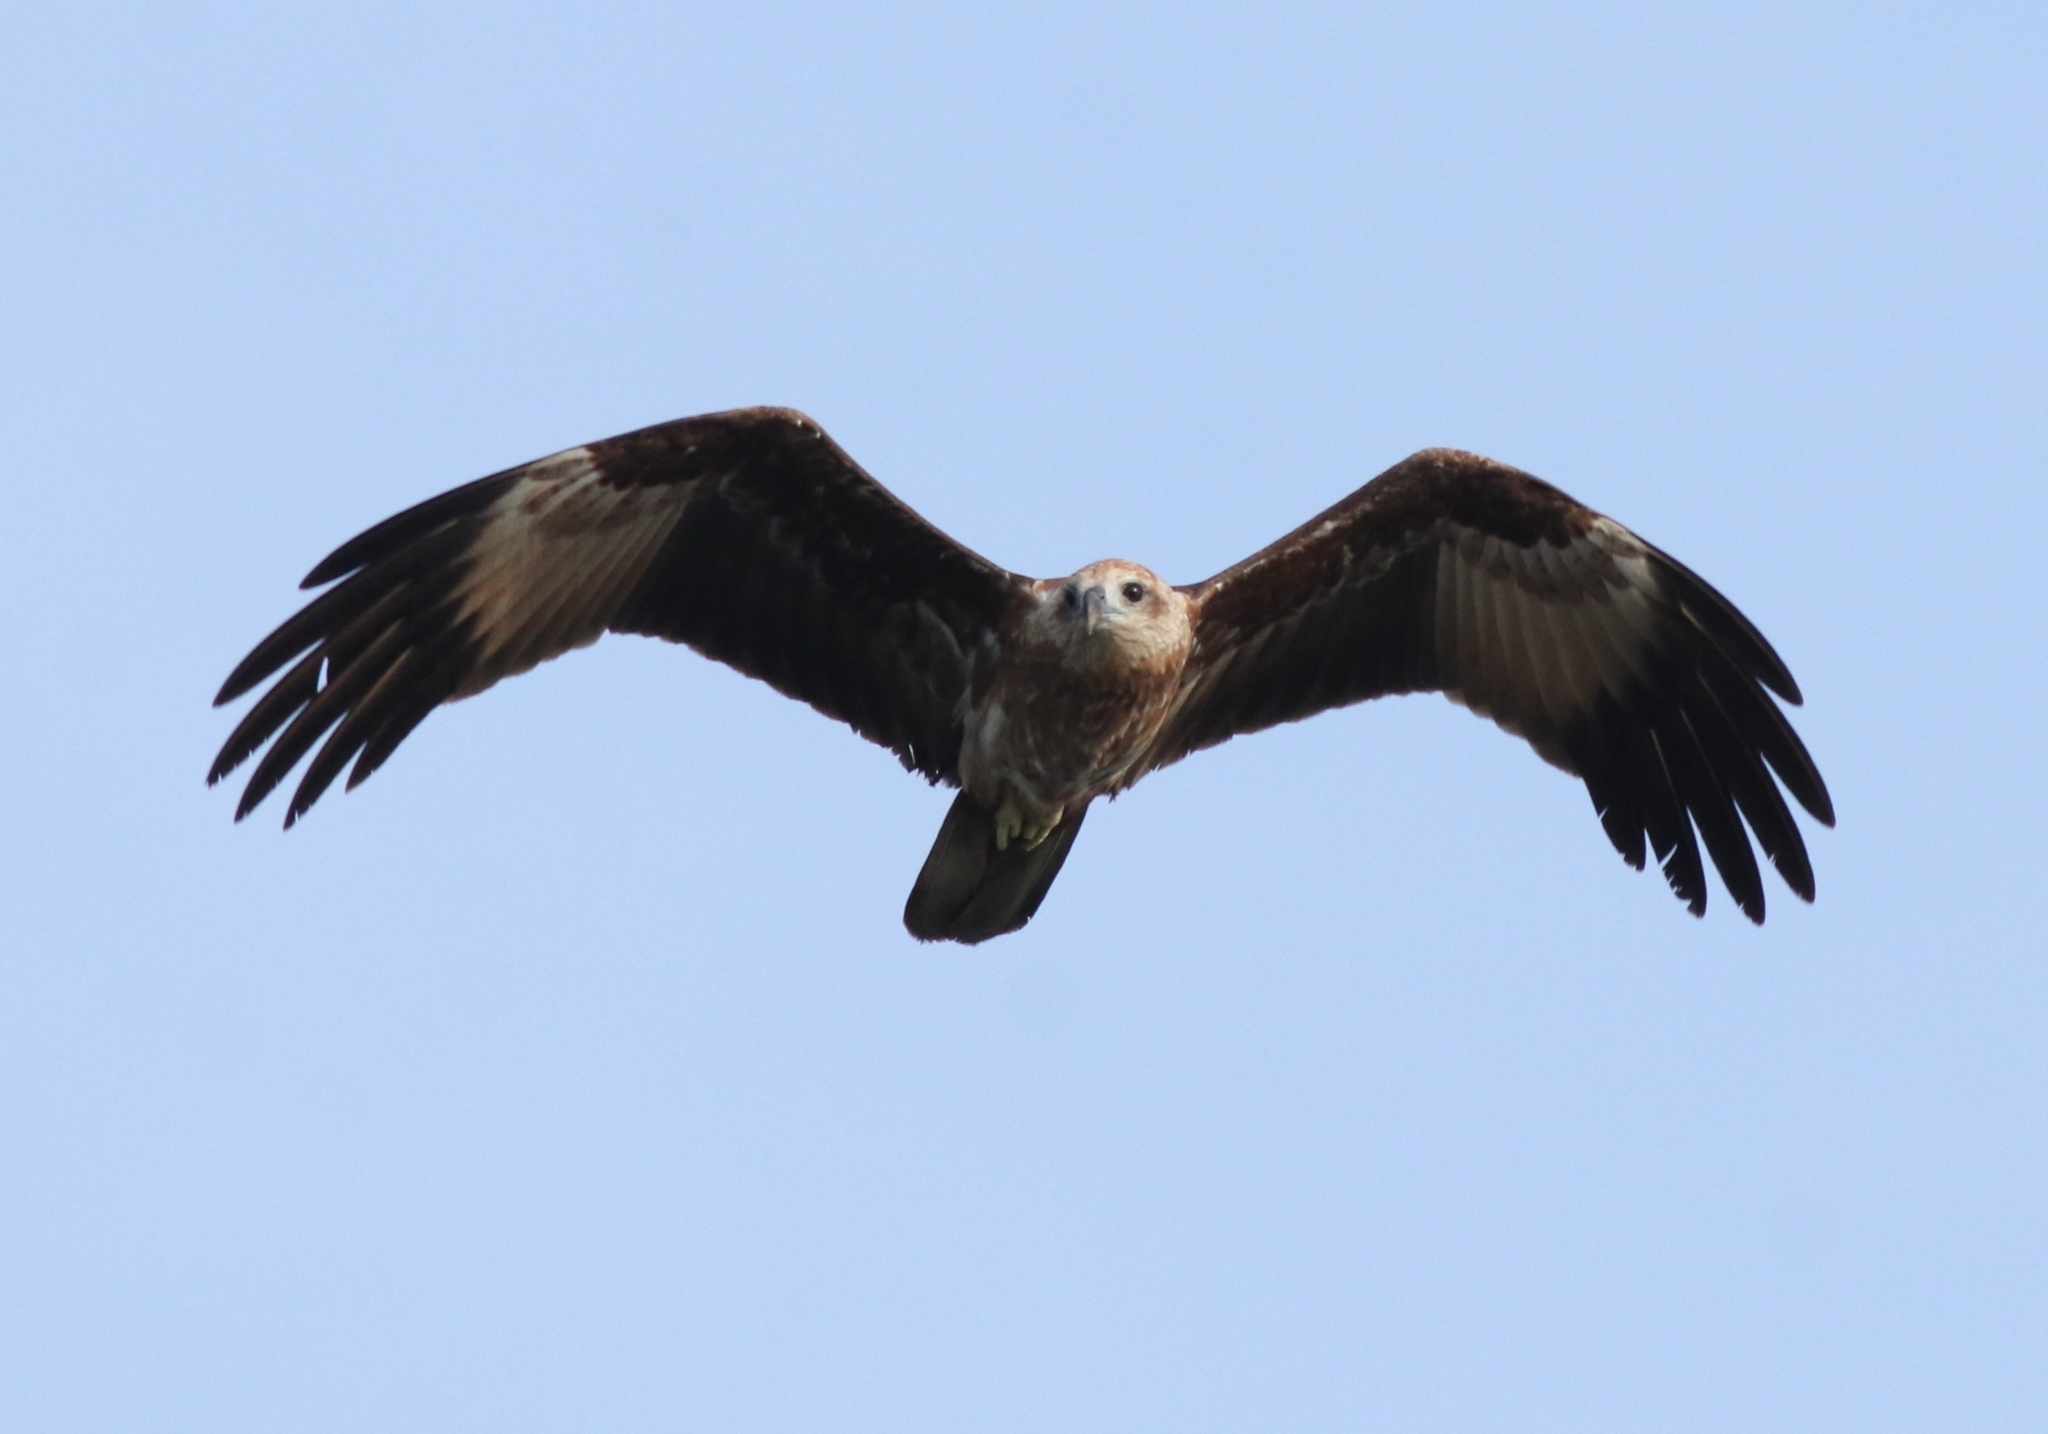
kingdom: Animalia
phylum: Chordata
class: Aves
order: Accipitriformes
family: Accipitridae
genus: Haliastur
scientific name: Haliastur indus
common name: Brahminy kite
